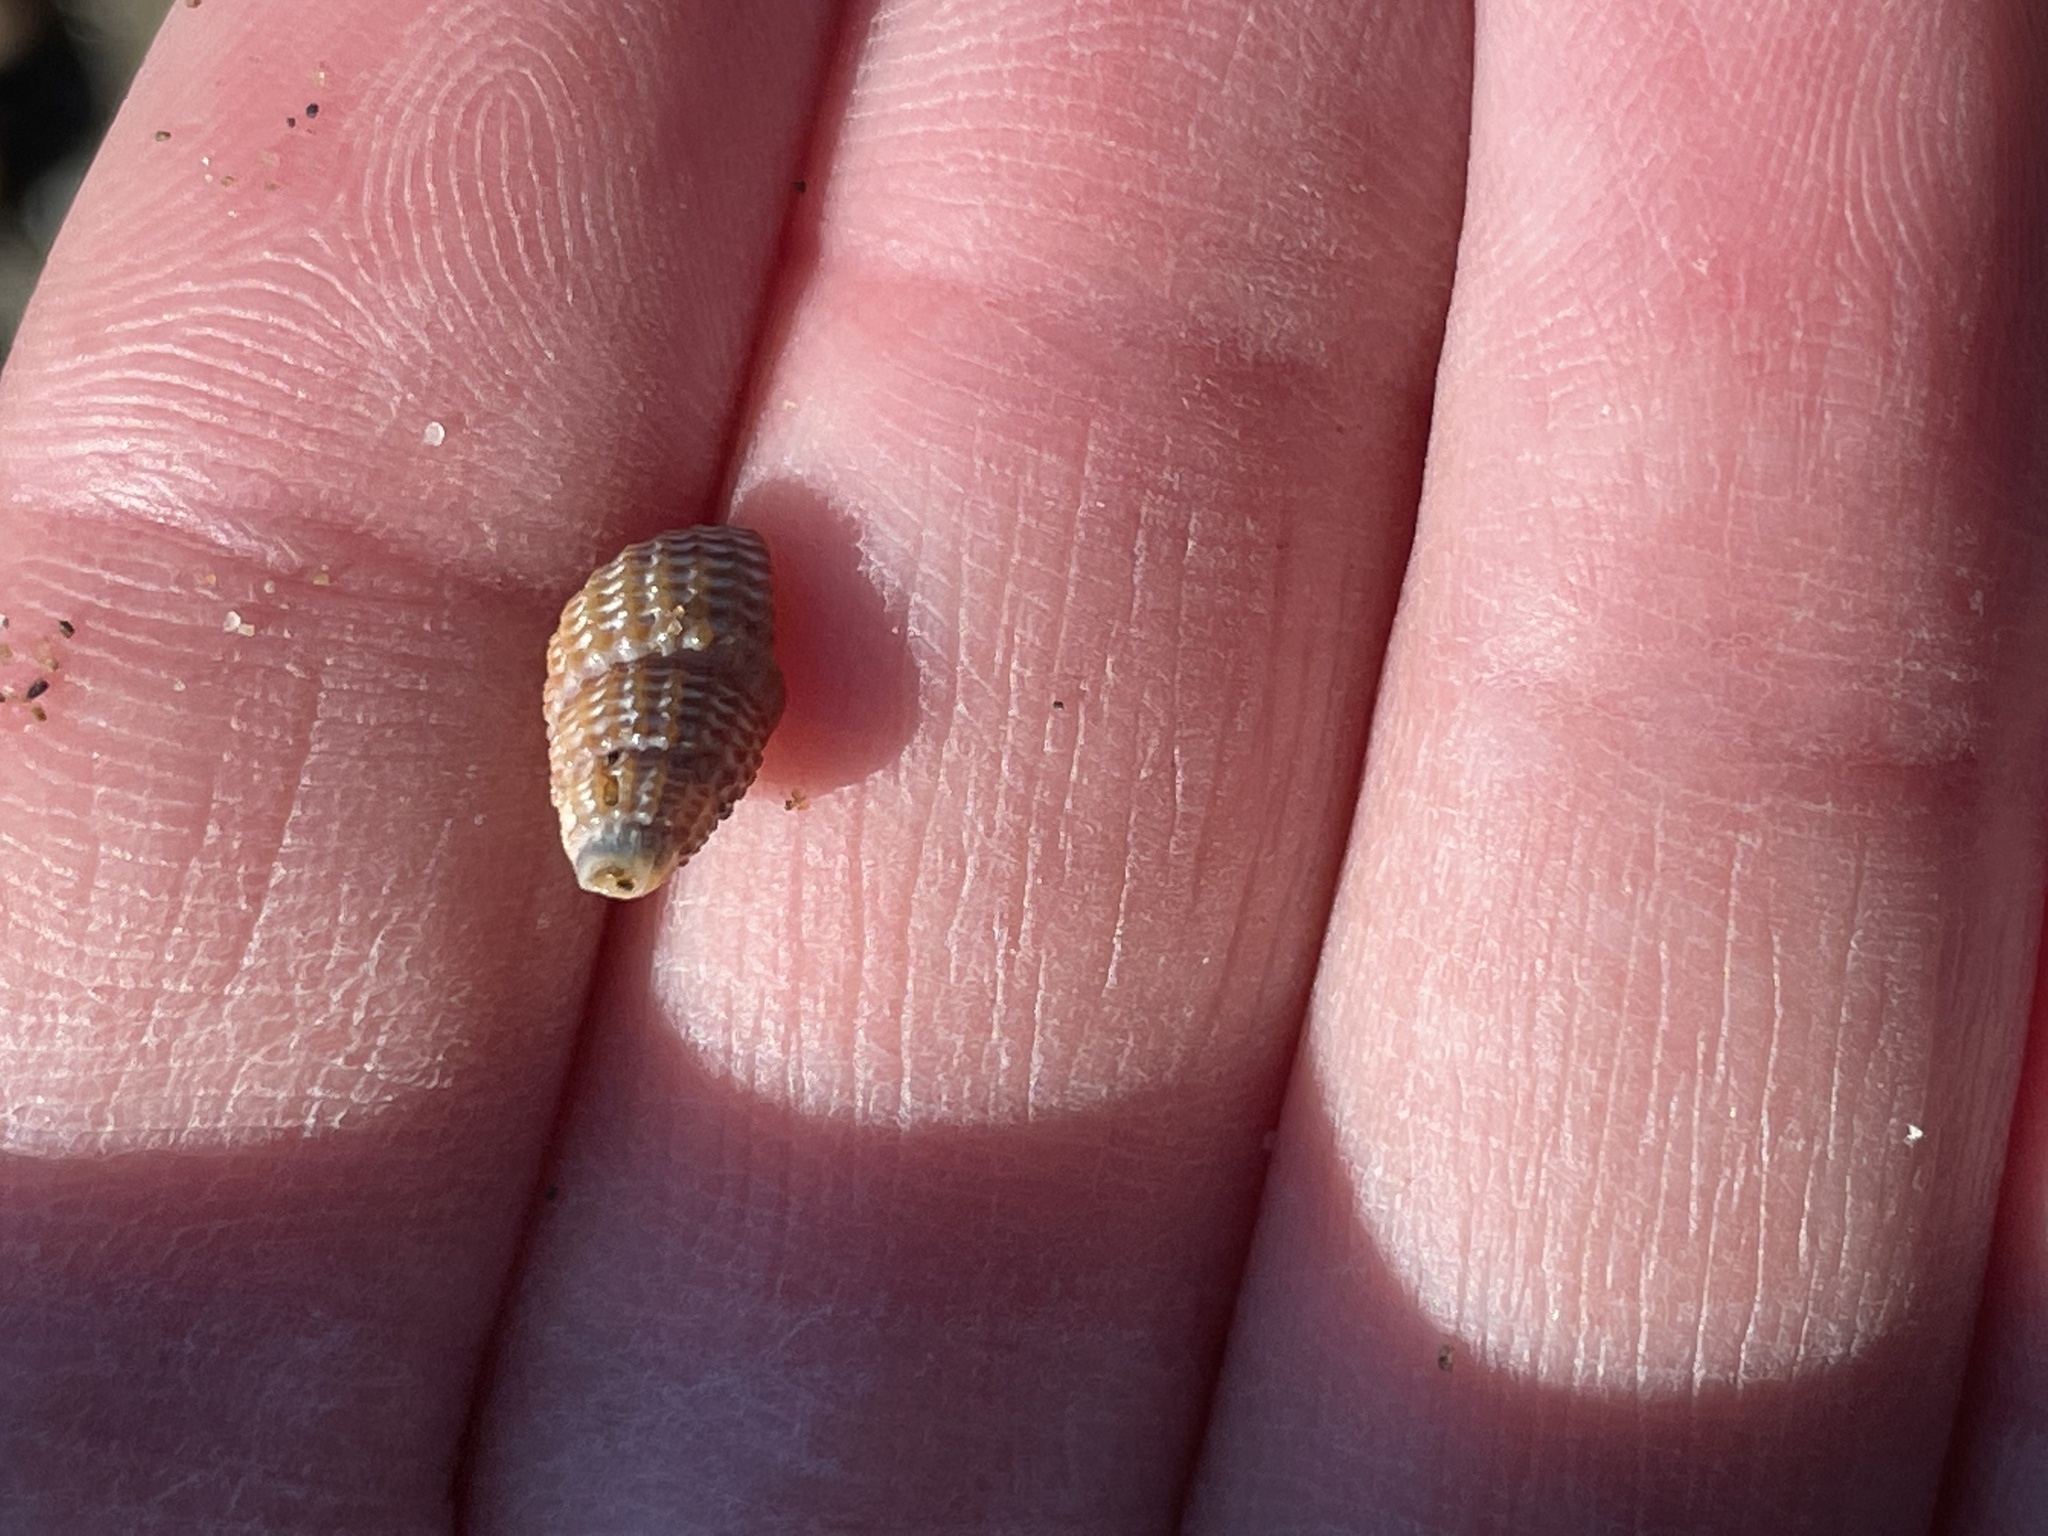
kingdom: Animalia
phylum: Mollusca
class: Gastropoda
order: Neogastropoda
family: Nassariidae
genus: Ilyanassa
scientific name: Ilyanassa trivittata
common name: Three-line mudsnail
